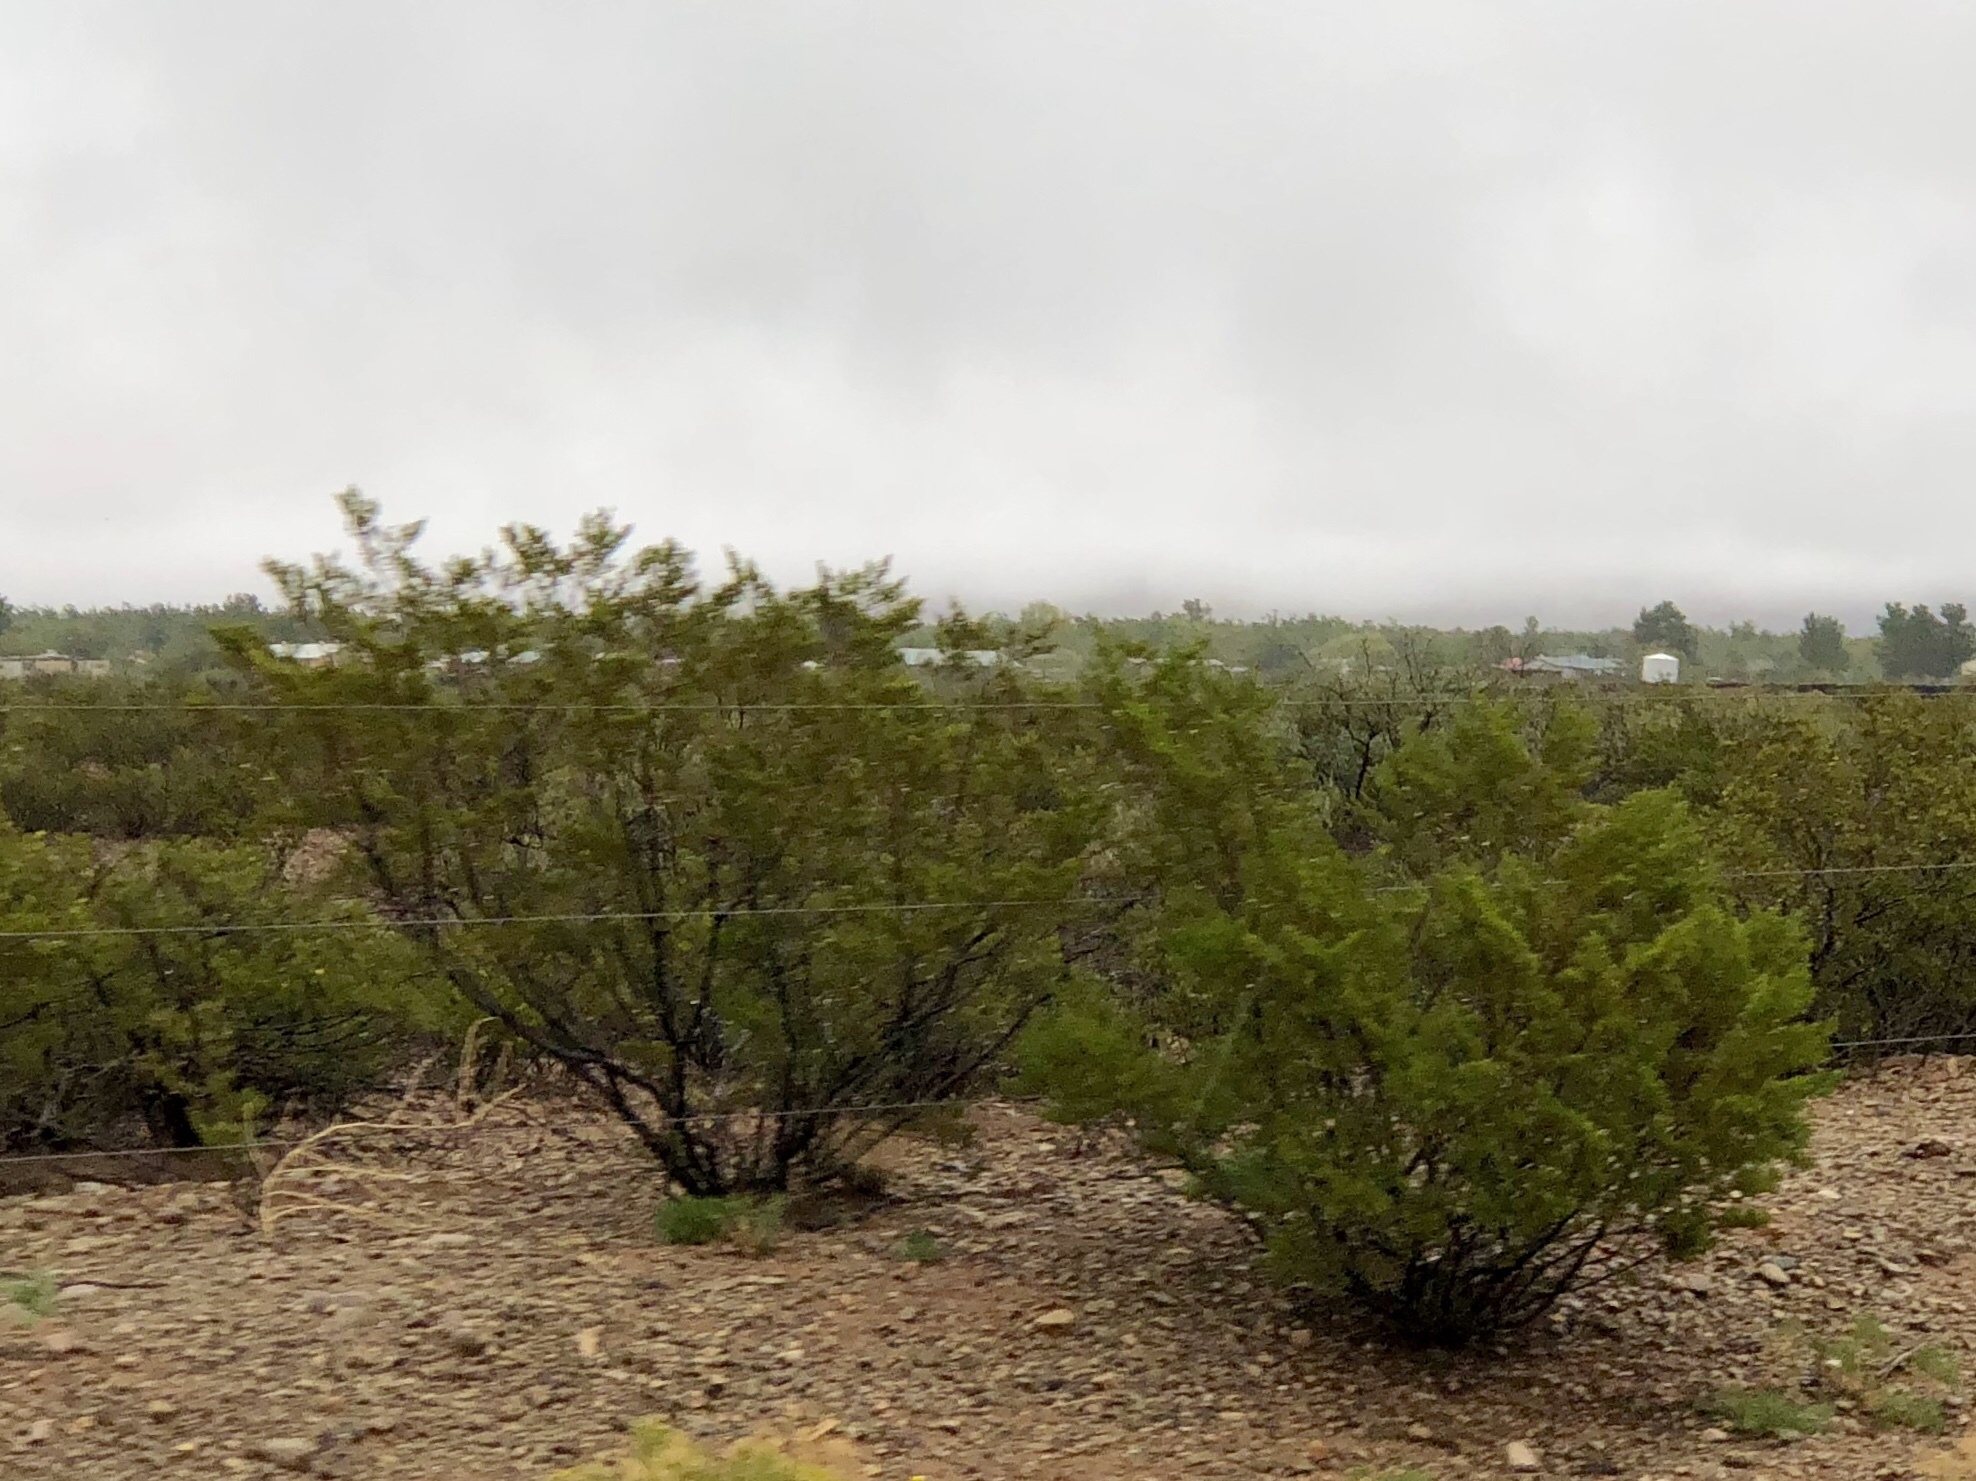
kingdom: Plantae
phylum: Tracheophyta
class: Magnoliopsida
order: Zygophyllales
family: Zygophyllaceae
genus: Larrea
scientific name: Larrea tridentata
